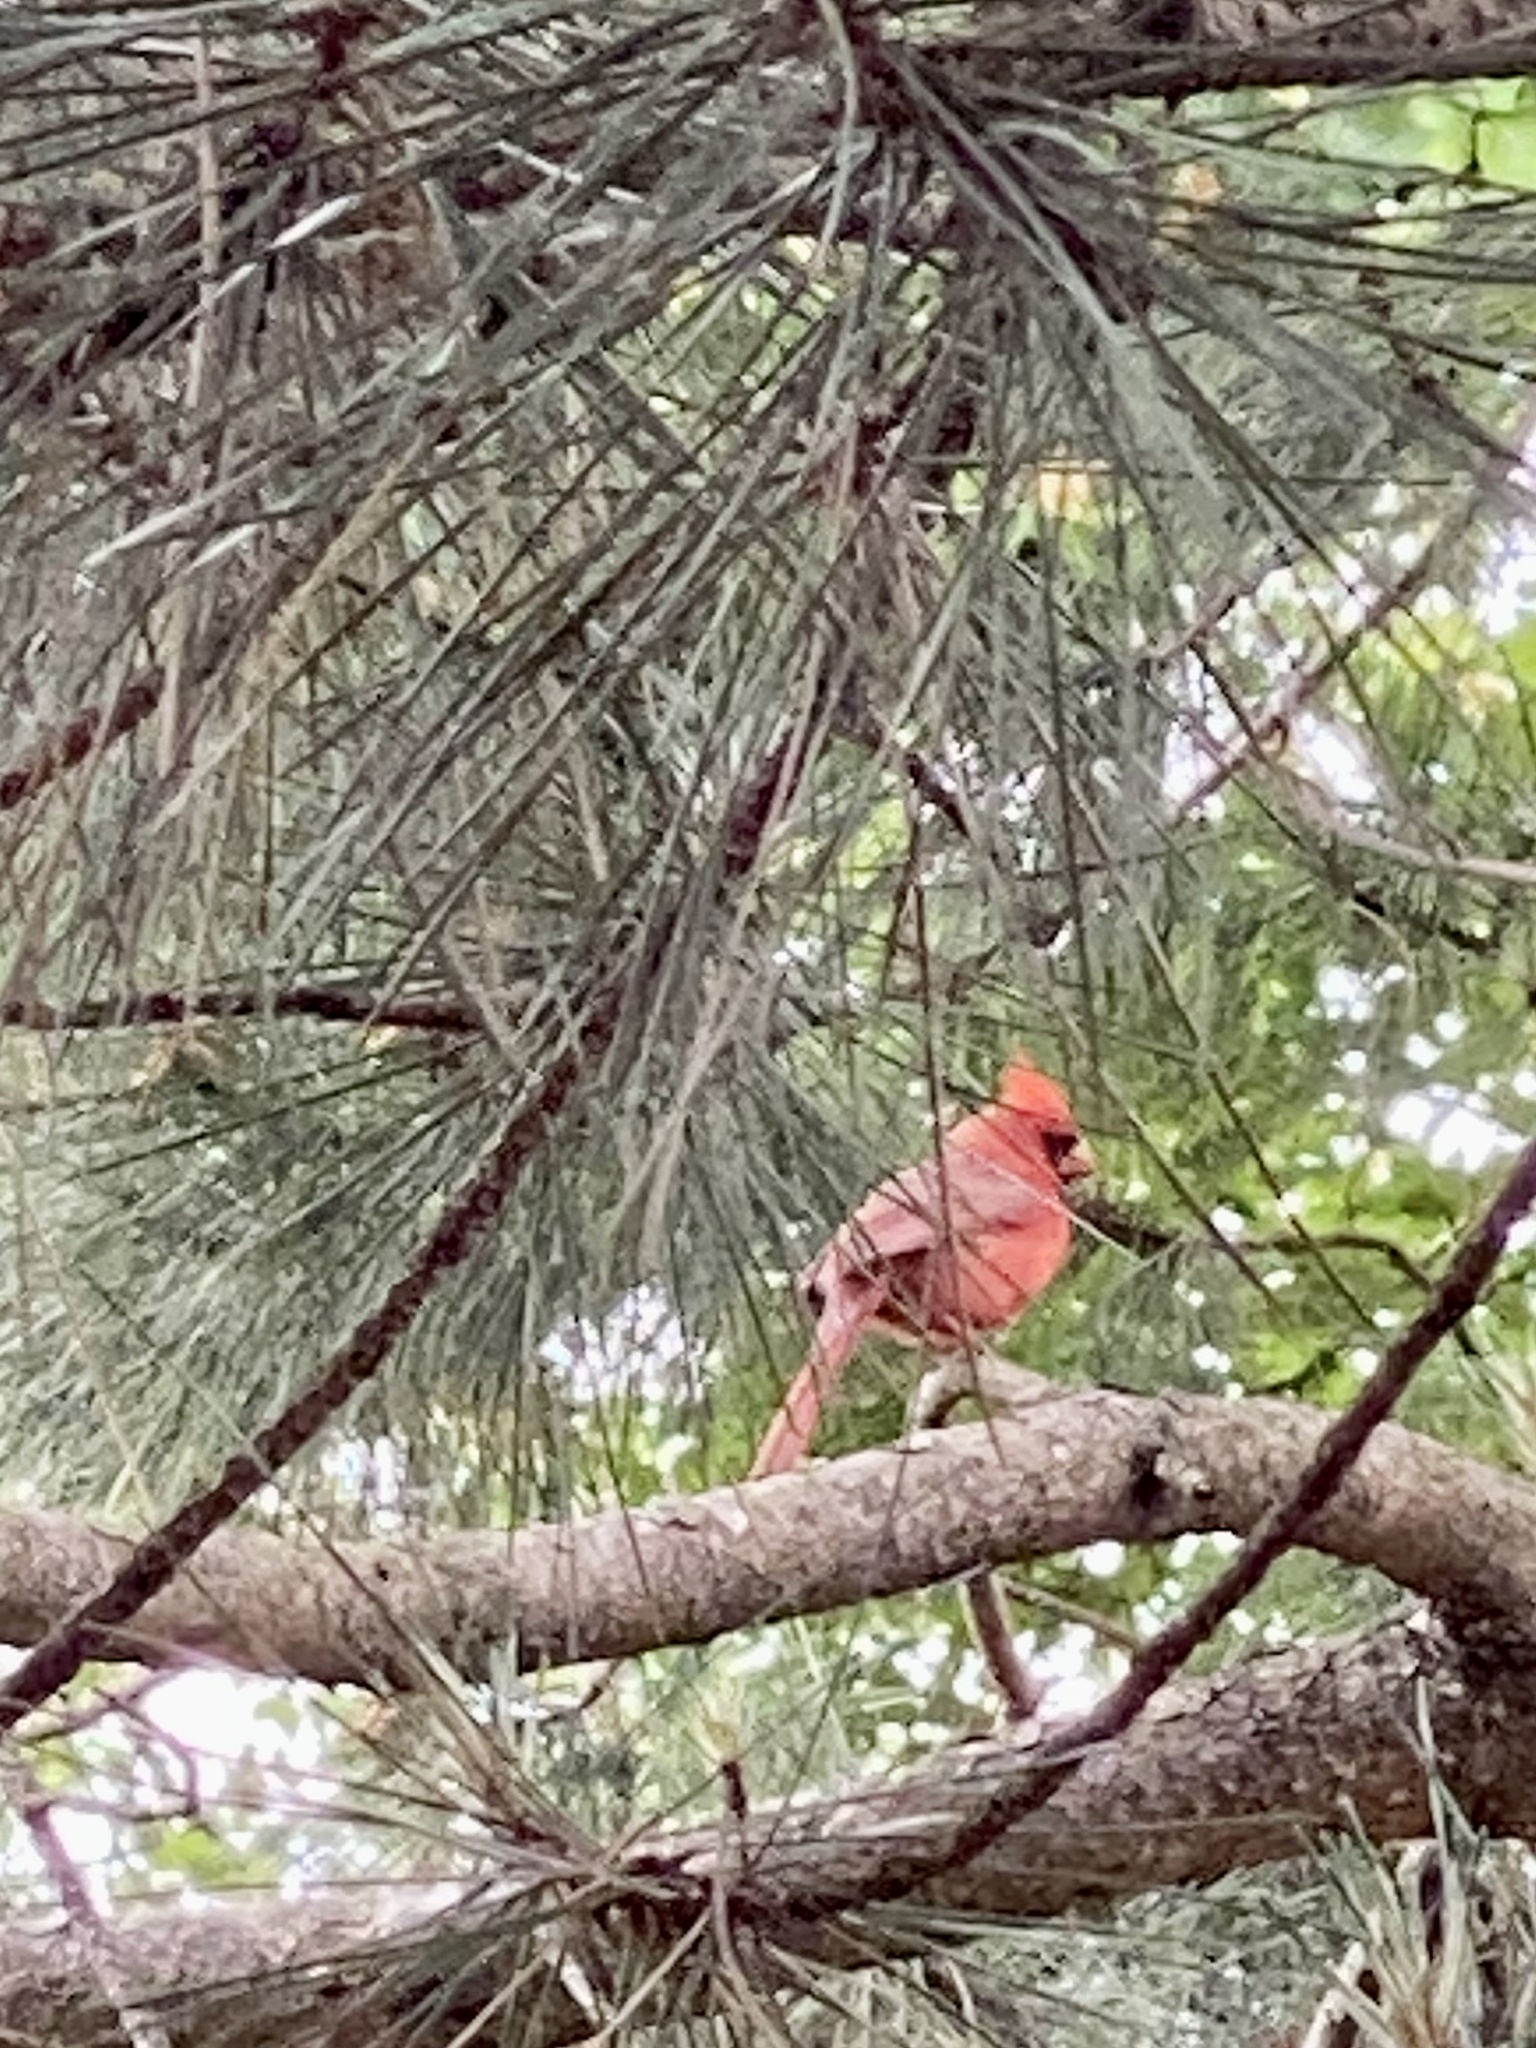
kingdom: Animalia
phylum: Chordata
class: Aves
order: Passeriformes
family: Cardinalidae
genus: Cardinalis
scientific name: Cardinalis cardinalis
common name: Northern cardinal
